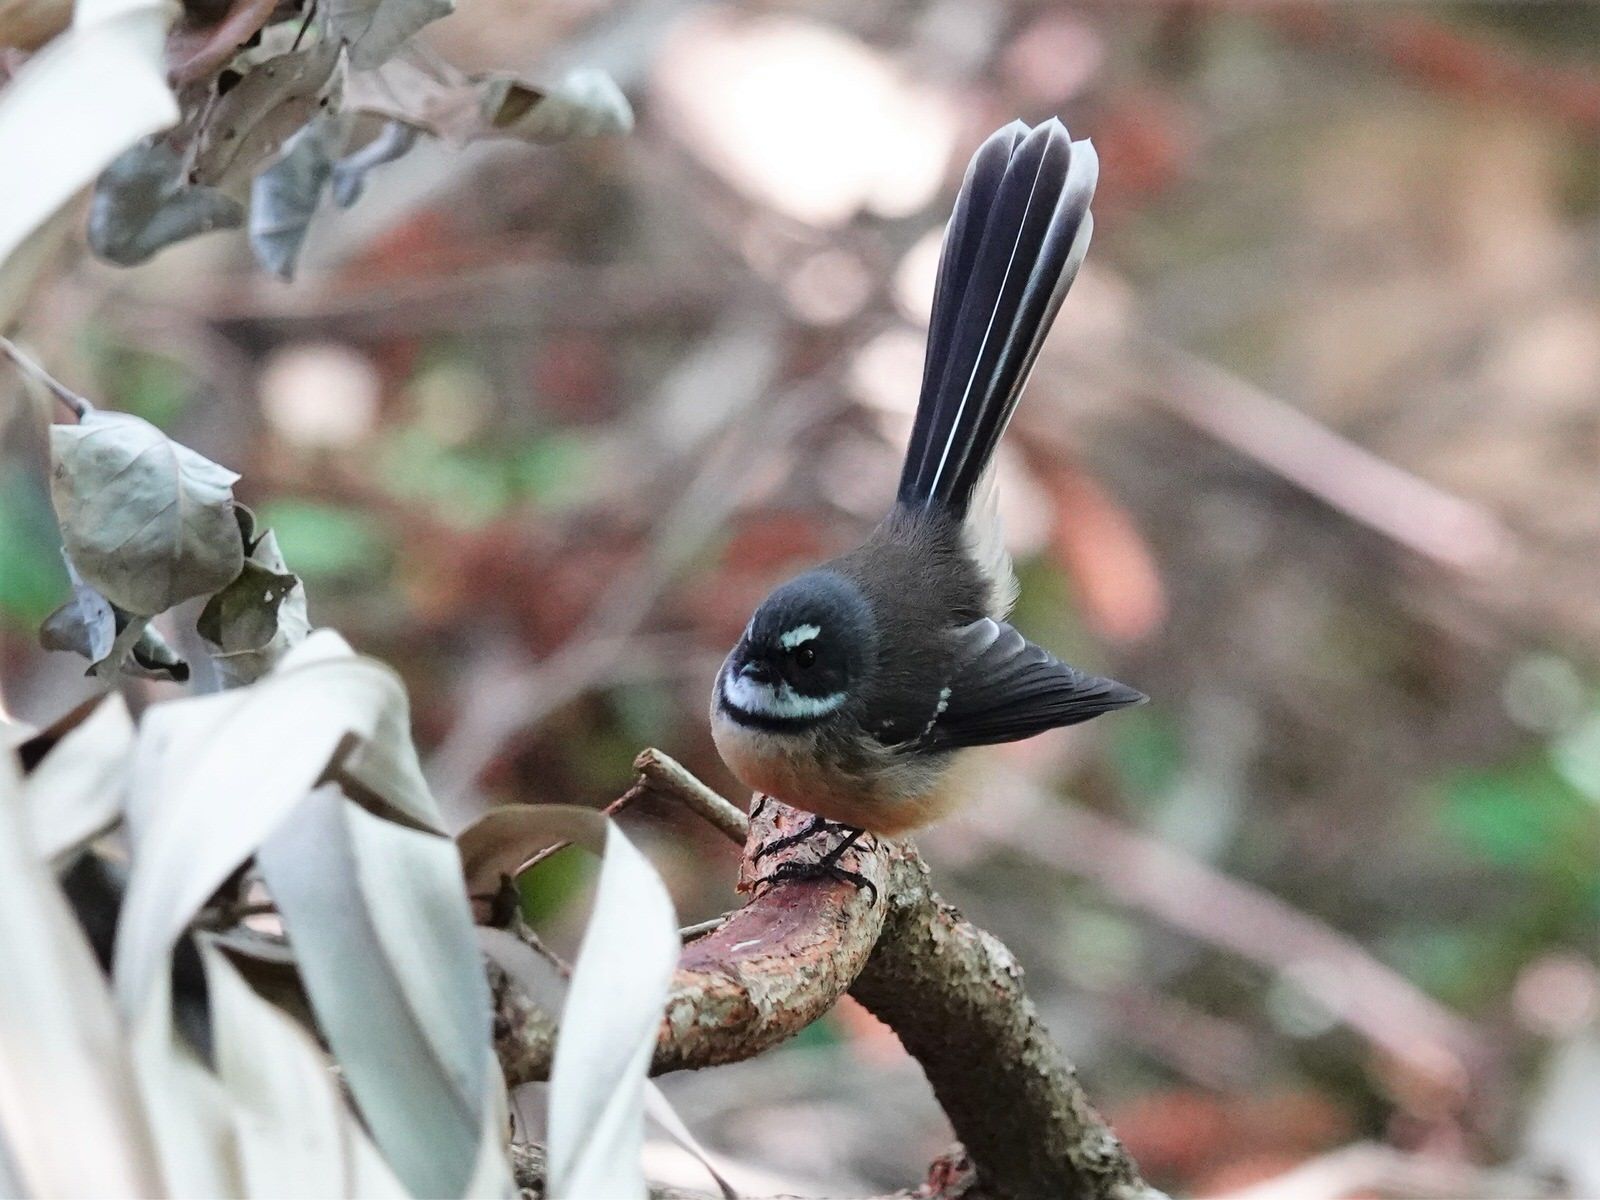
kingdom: Animalia
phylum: Chordata
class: Aves
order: Passeriformes
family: Rhipiduridae
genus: Rhipidura
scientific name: Rhipidura fuliginosa
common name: New zealand fantail
